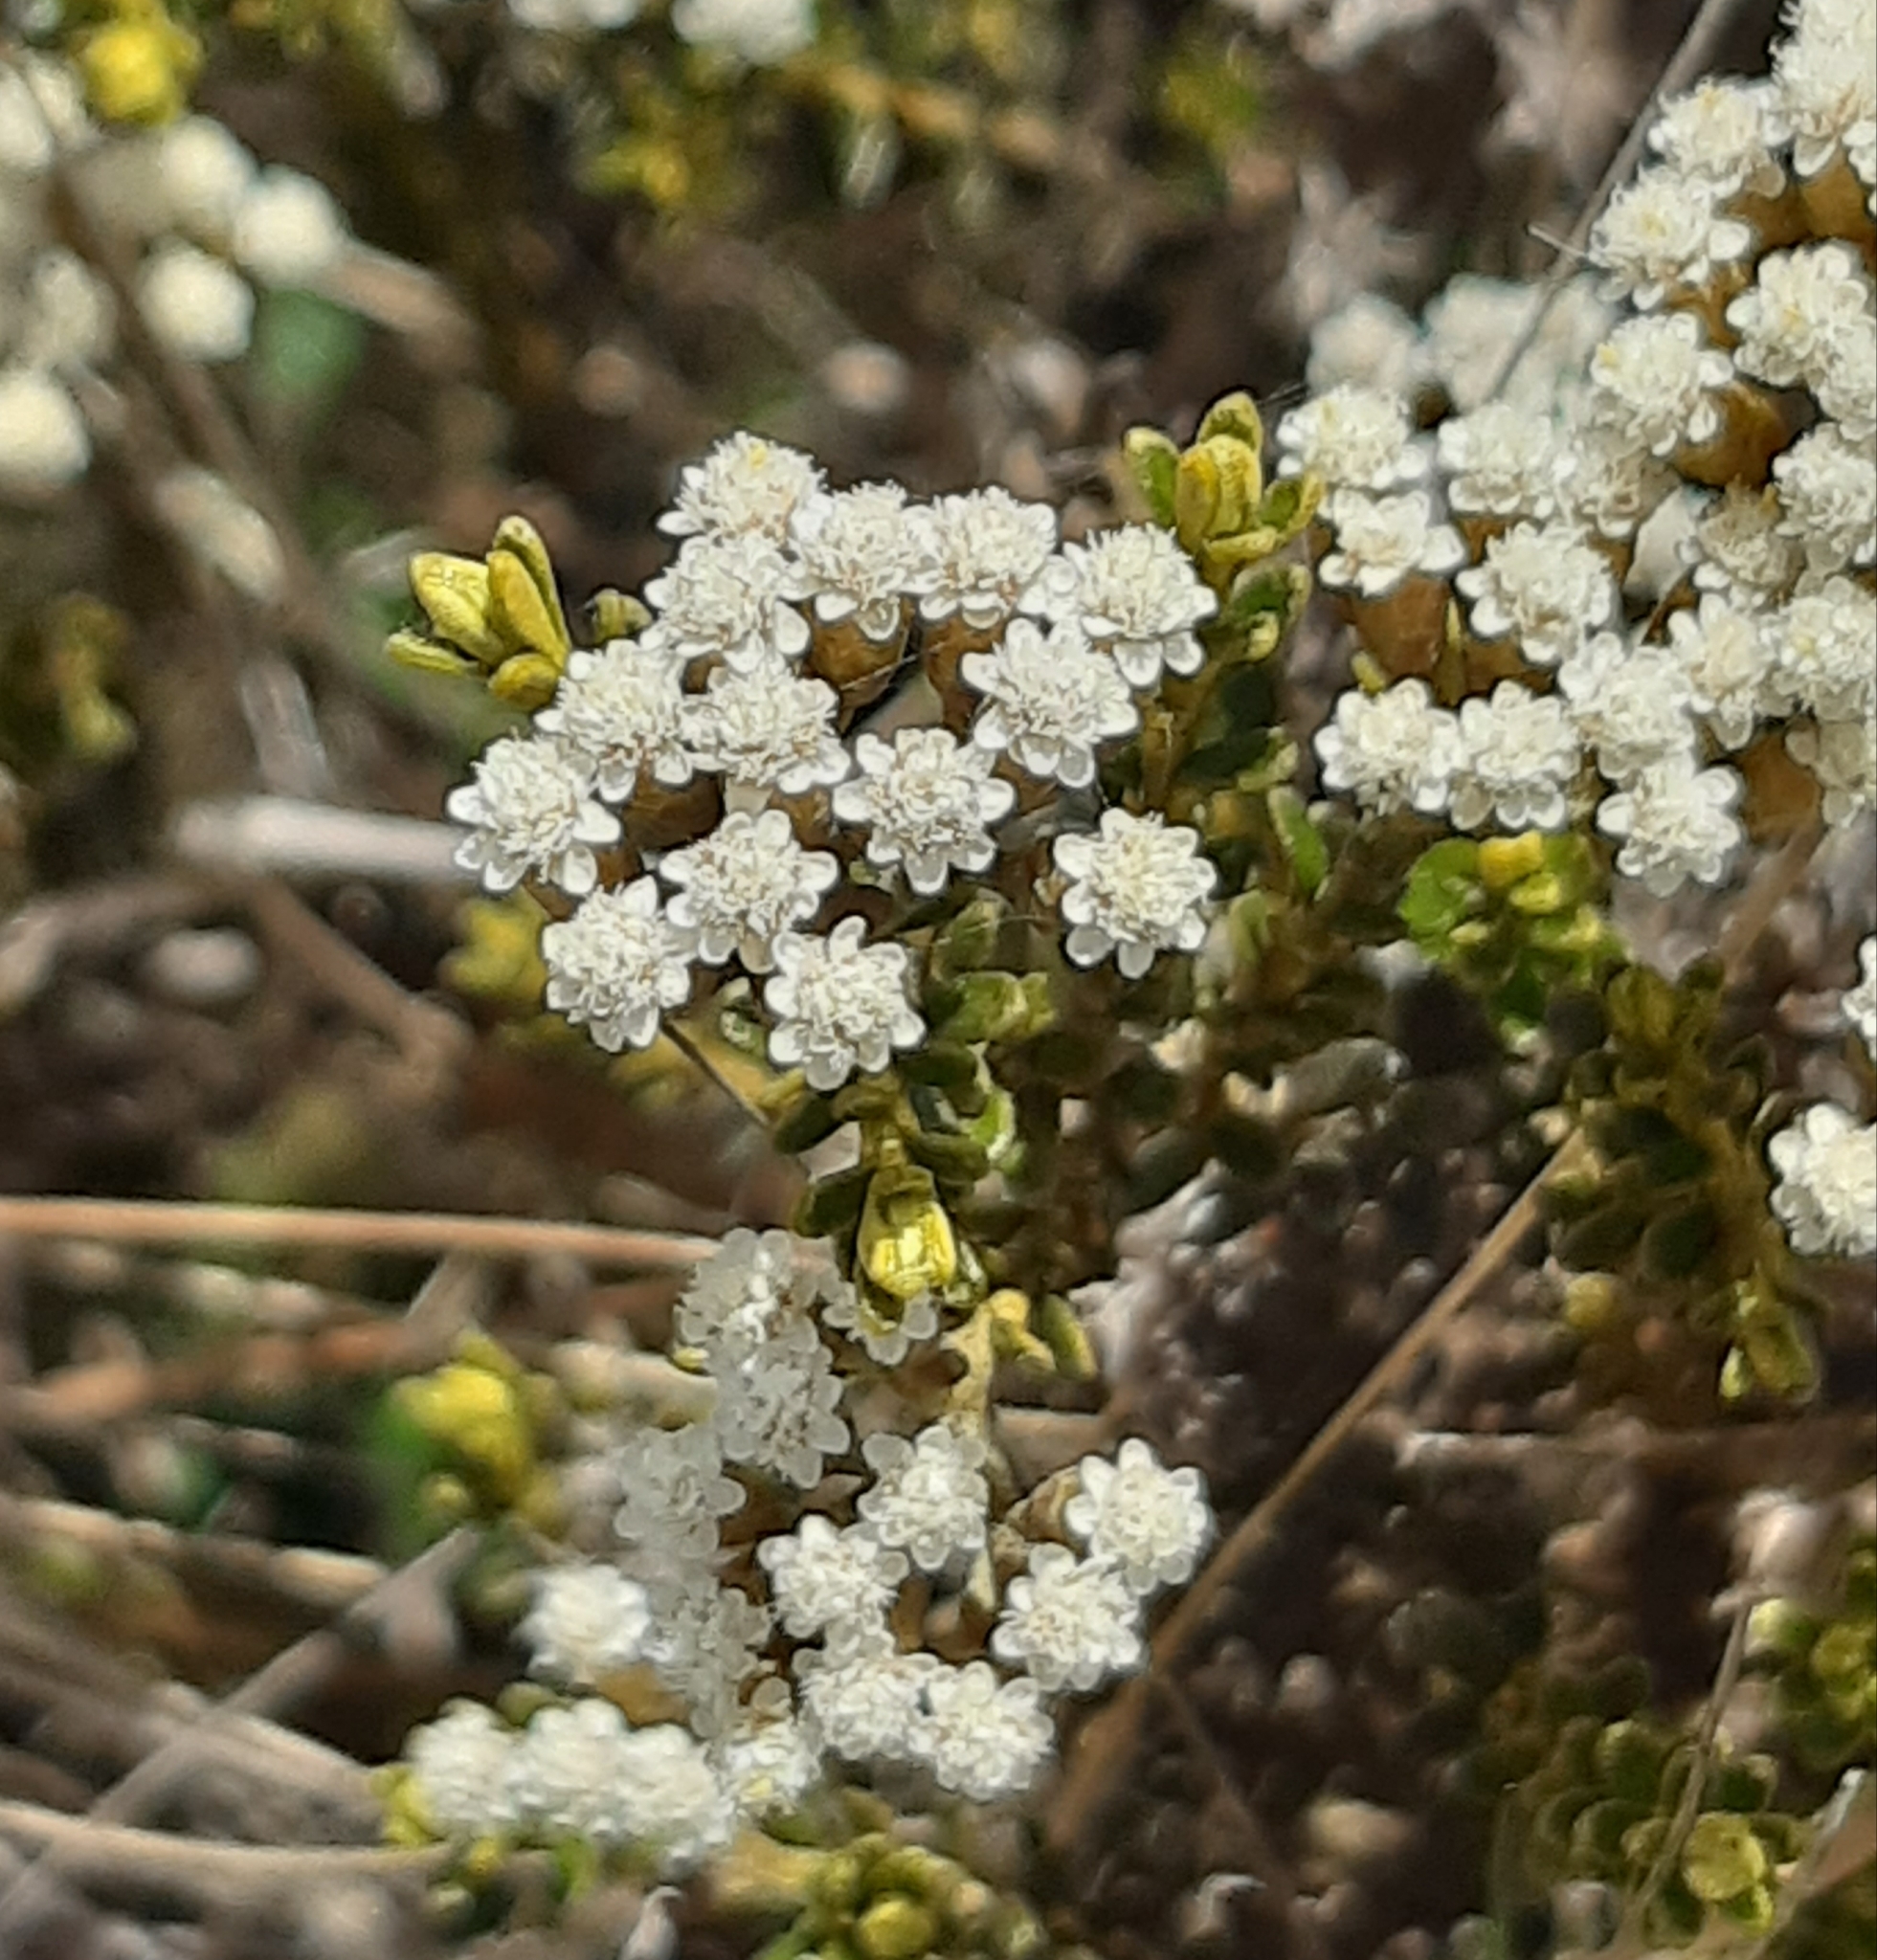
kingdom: Plantae
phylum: Tracheophyta
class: Magnoliopsida
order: Asterales
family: Asteraceae
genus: Ozothamnus
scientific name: Ozothamnus leptophyllus
